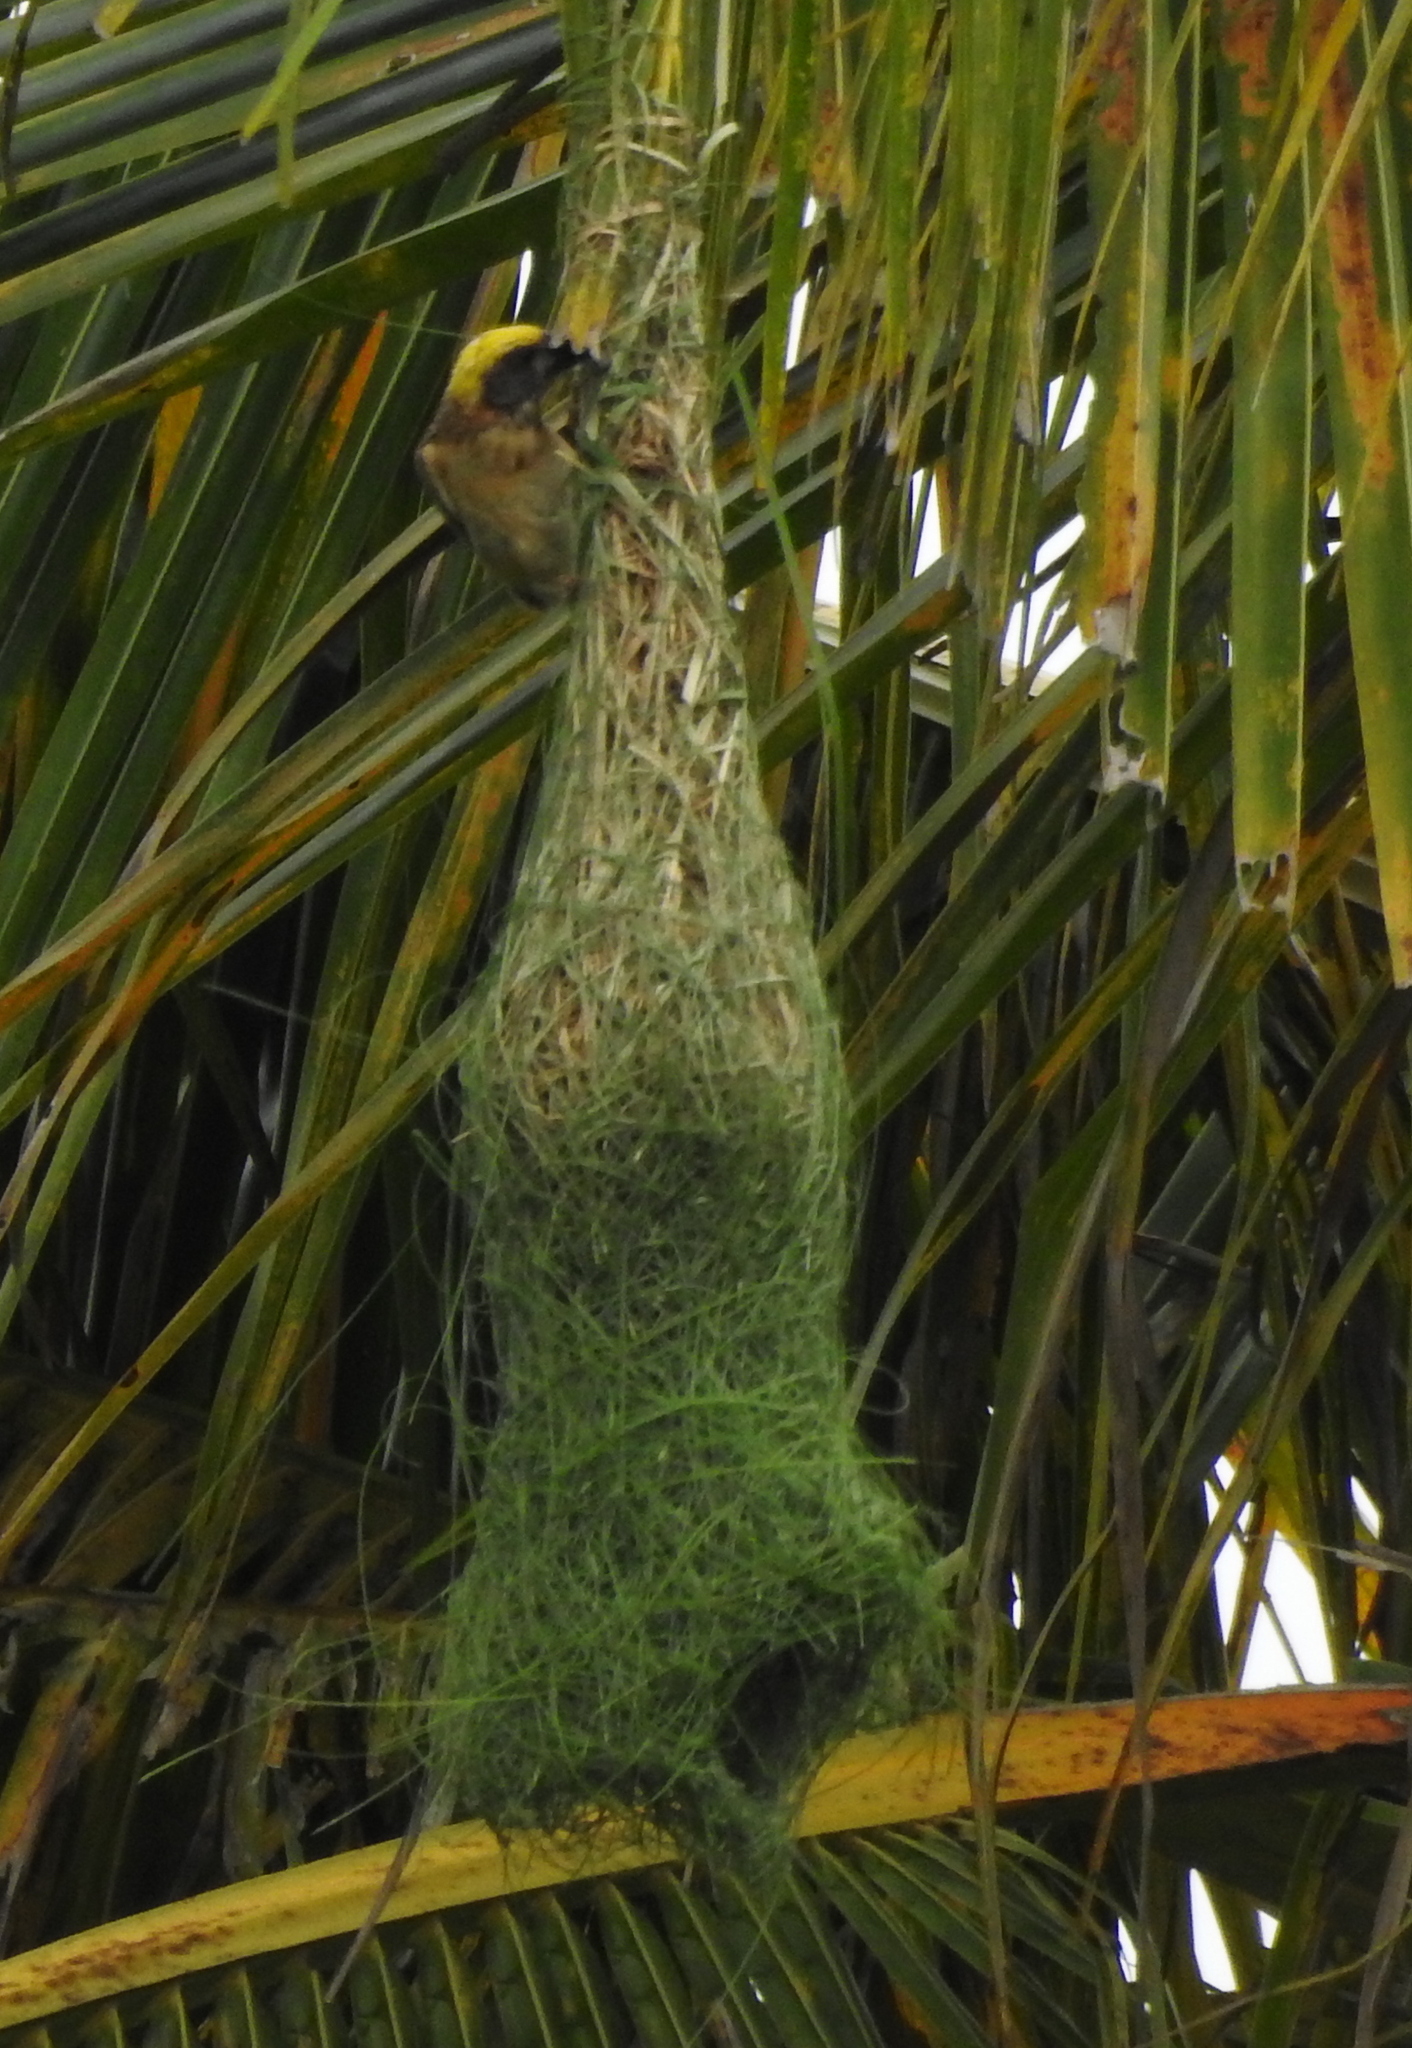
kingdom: Animalia
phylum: Chordata
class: Aves
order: Passeriformes
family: Ploceidae
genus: Ploceus
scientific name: Ploceus philippinus
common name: Baya weaver
